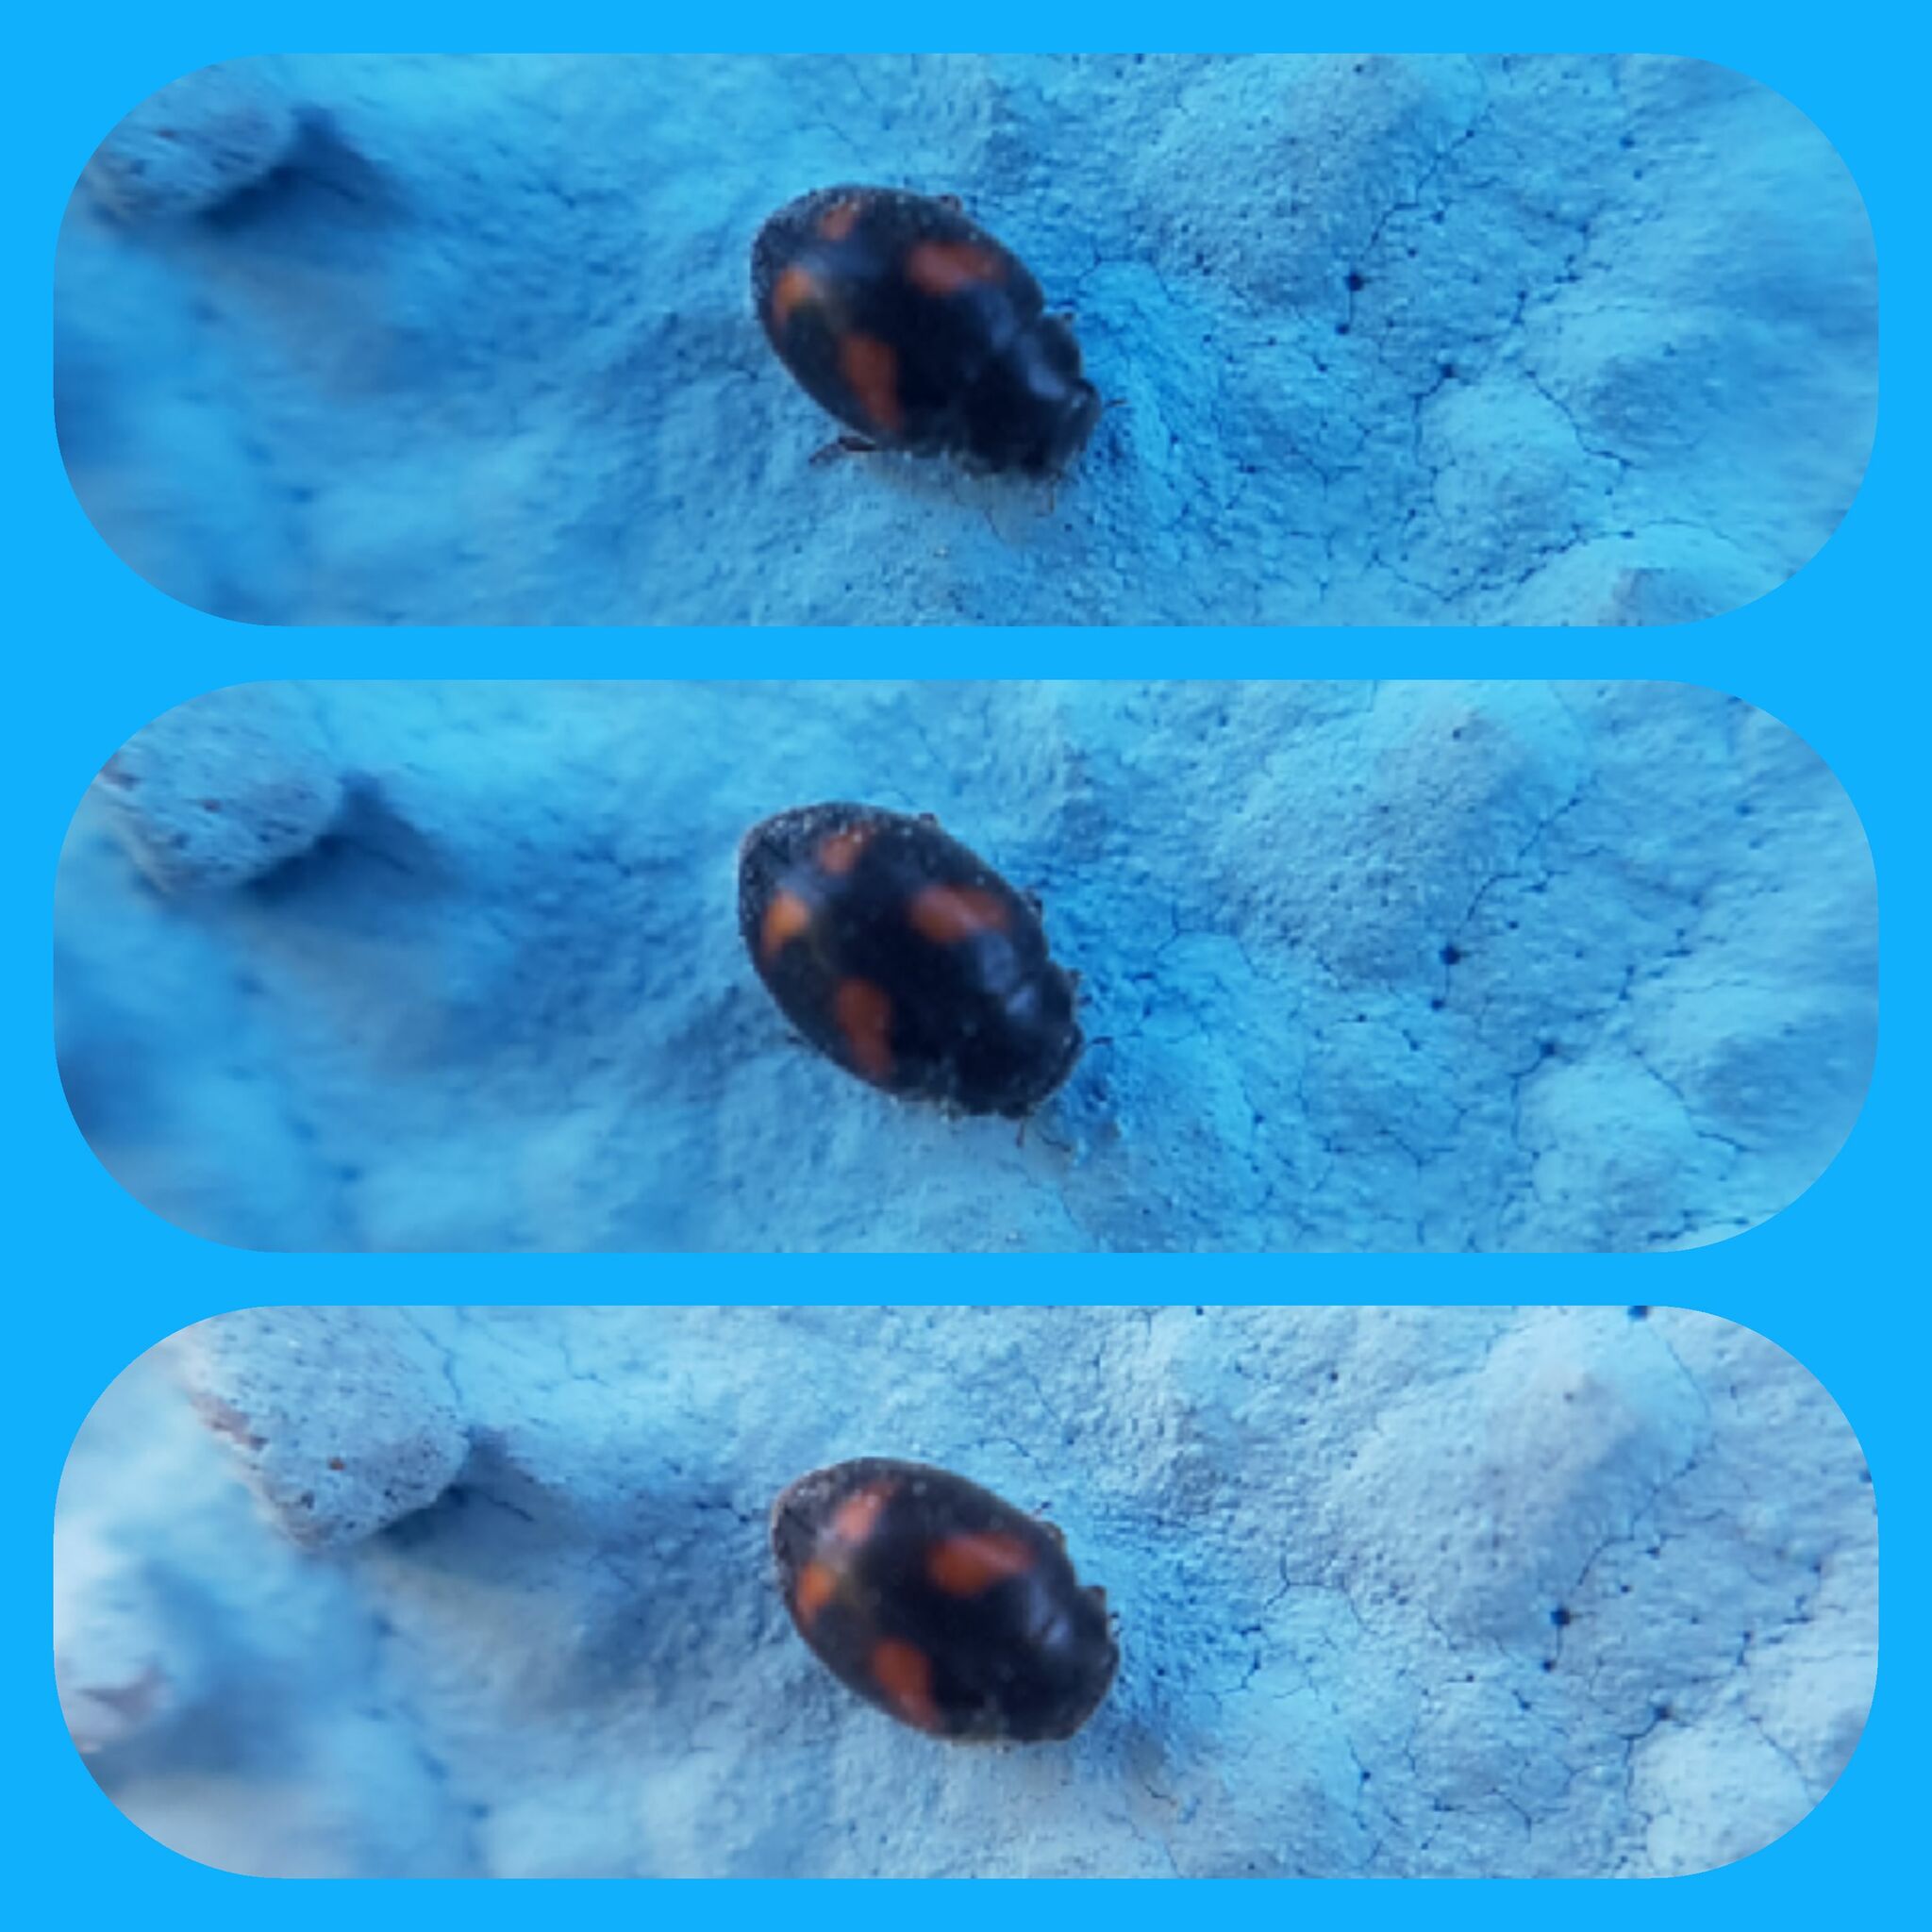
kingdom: Animalia
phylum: Arthropoda
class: Insecta
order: Coleoptera
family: Coccinellidae
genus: Nephus
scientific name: Nephus quadrimaculatus
